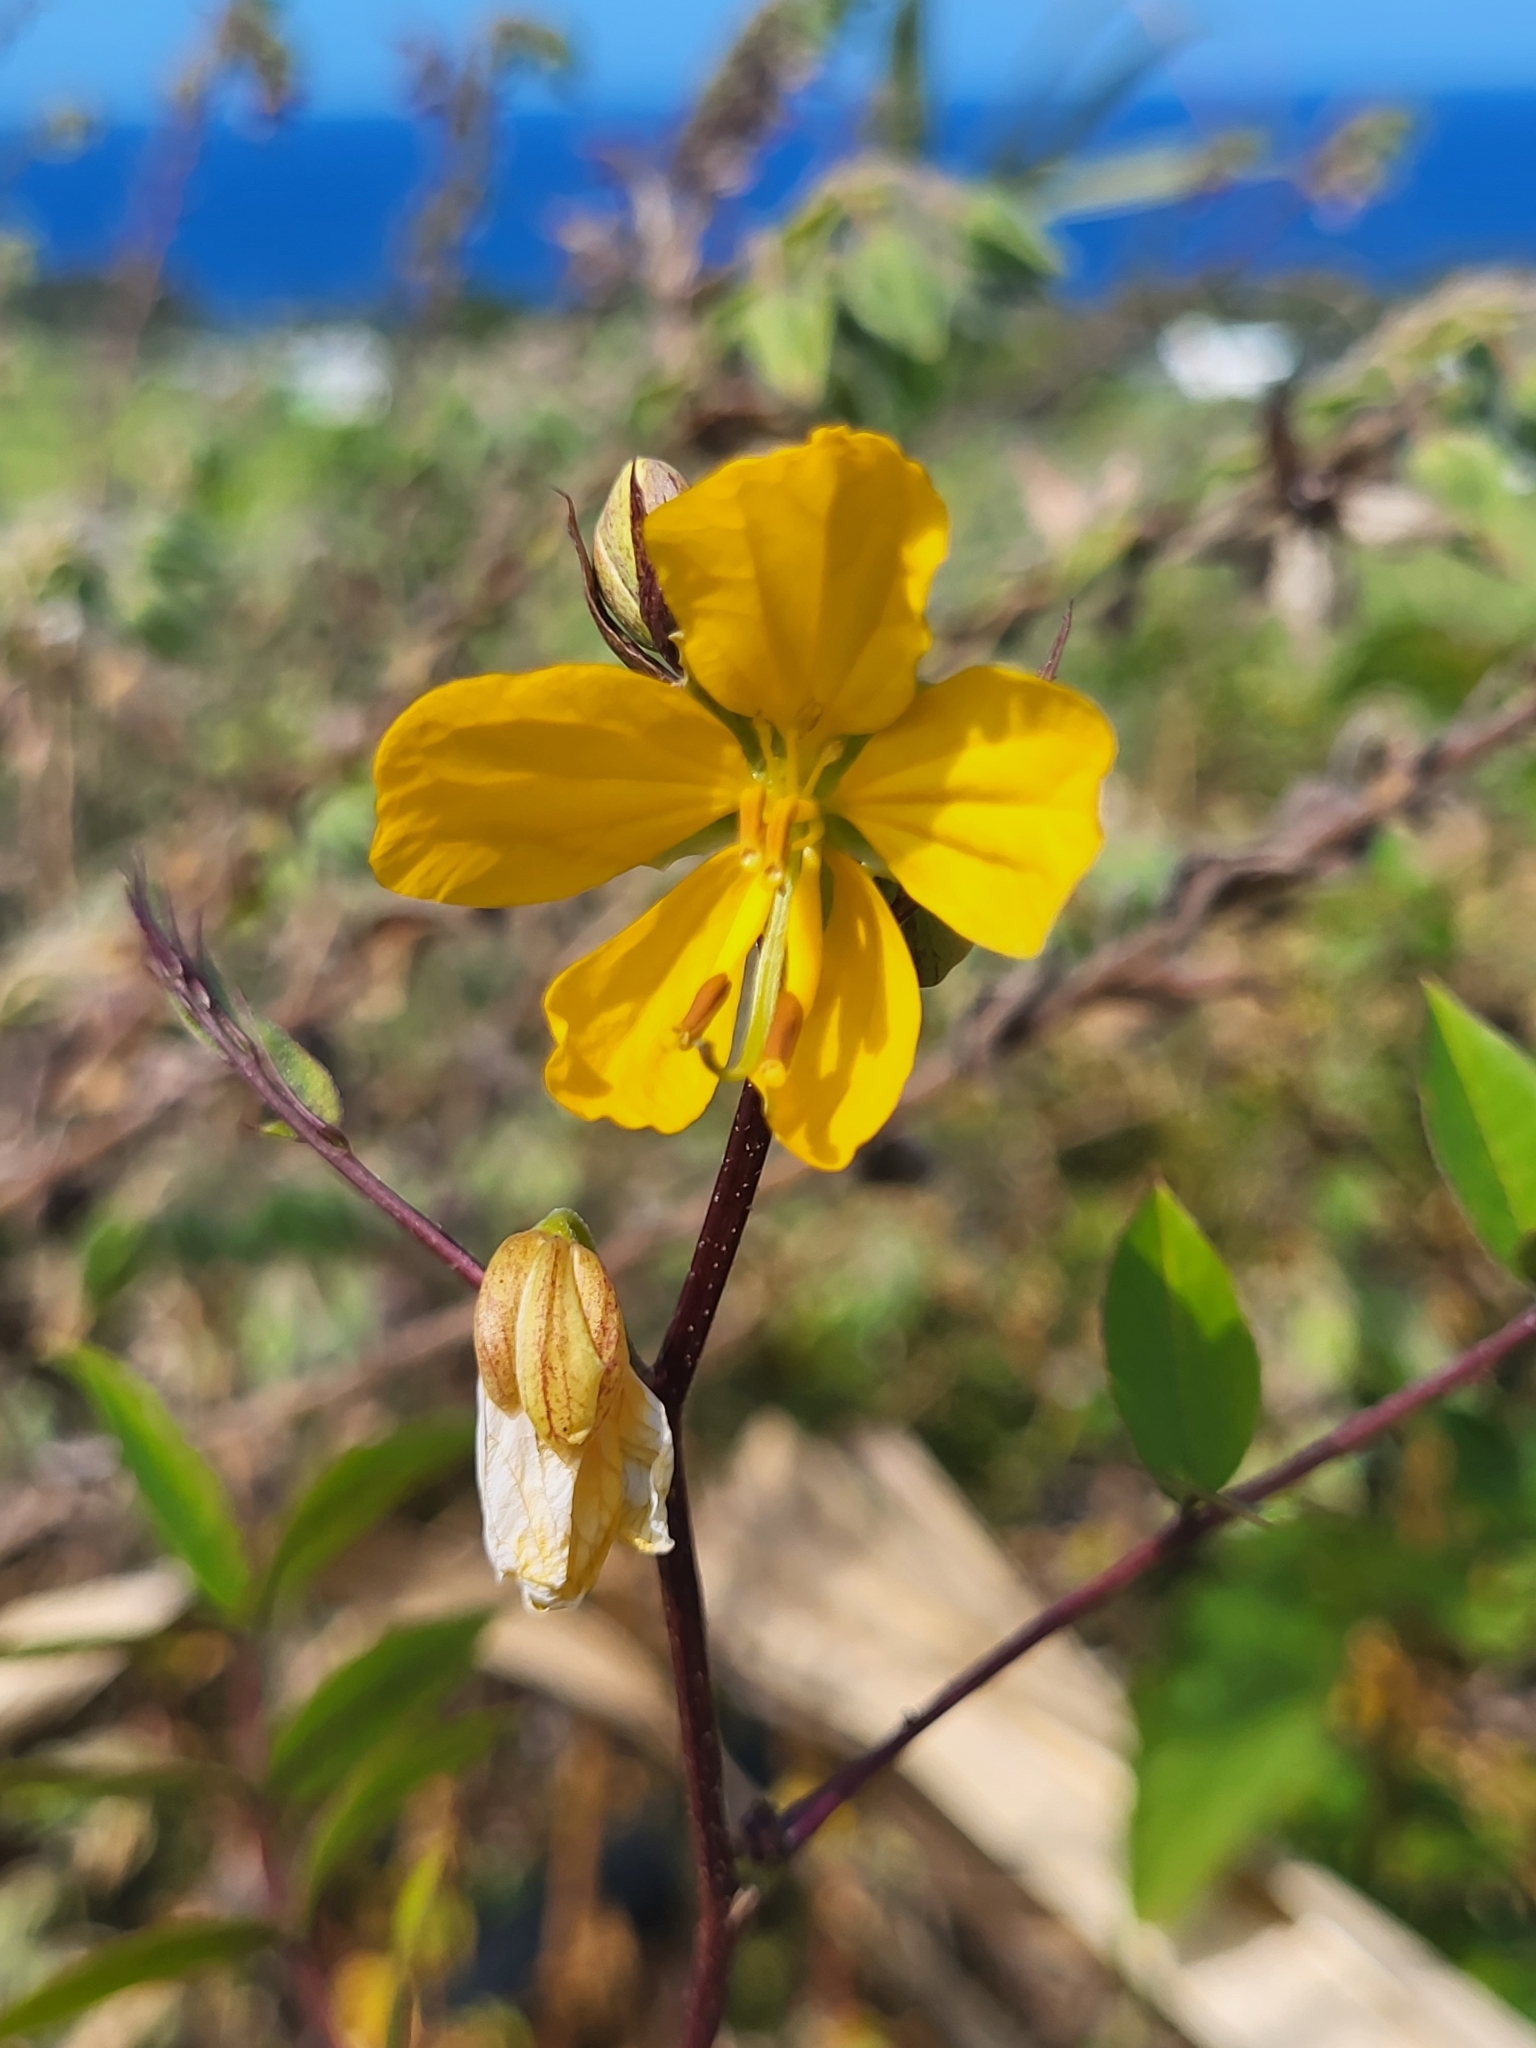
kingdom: Plantae
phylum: Tracheophyta
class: Magnoliopsida
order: Fabales
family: Fabaceae
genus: Senna
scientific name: Senna occidentalis
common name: Septicweed
